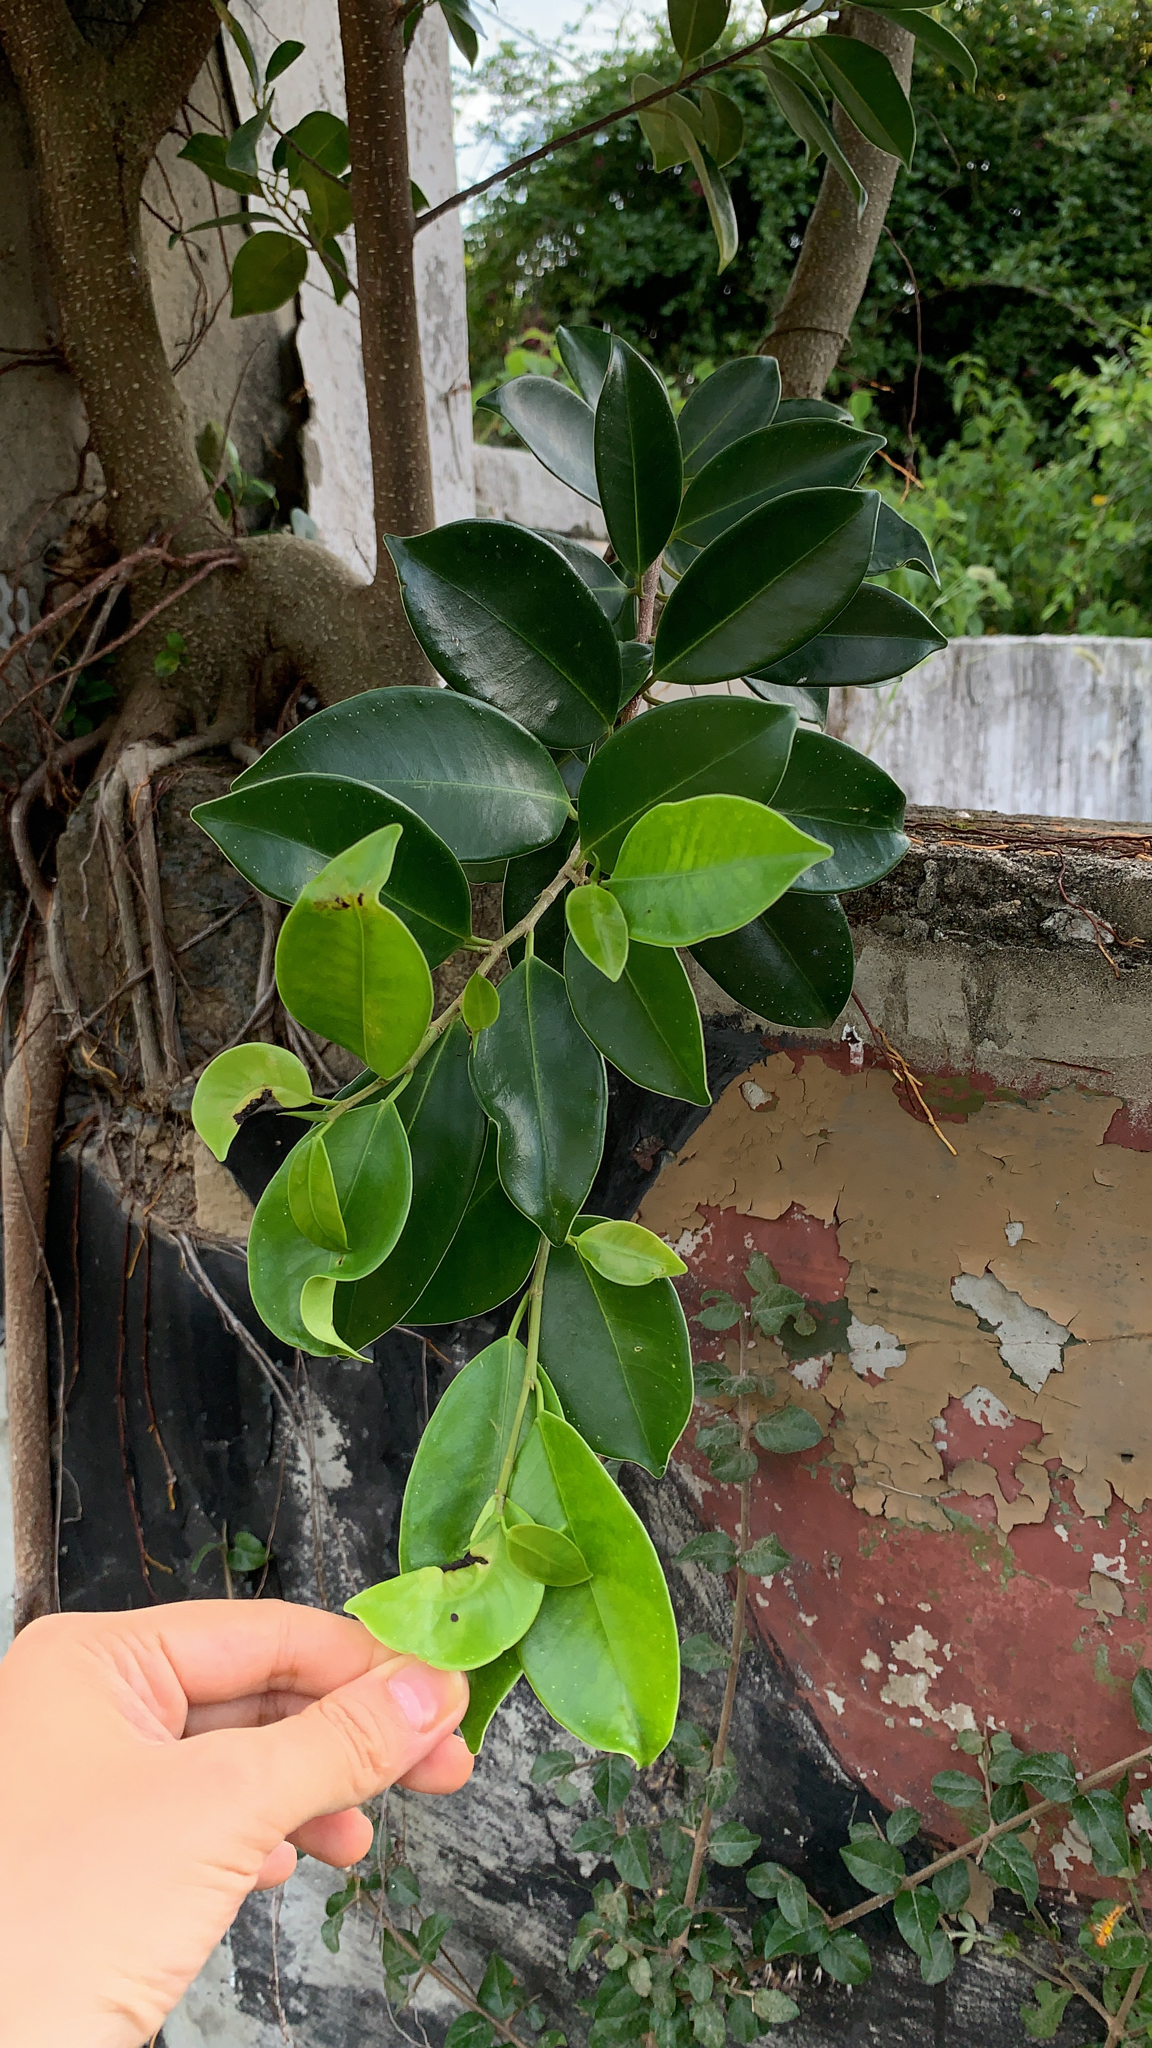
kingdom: Plantae
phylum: Tracheophyta
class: Magnoliopsida
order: Rosales
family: Moraceae
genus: Ficus
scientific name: Ficus microcarpa
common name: Chinese banyan
